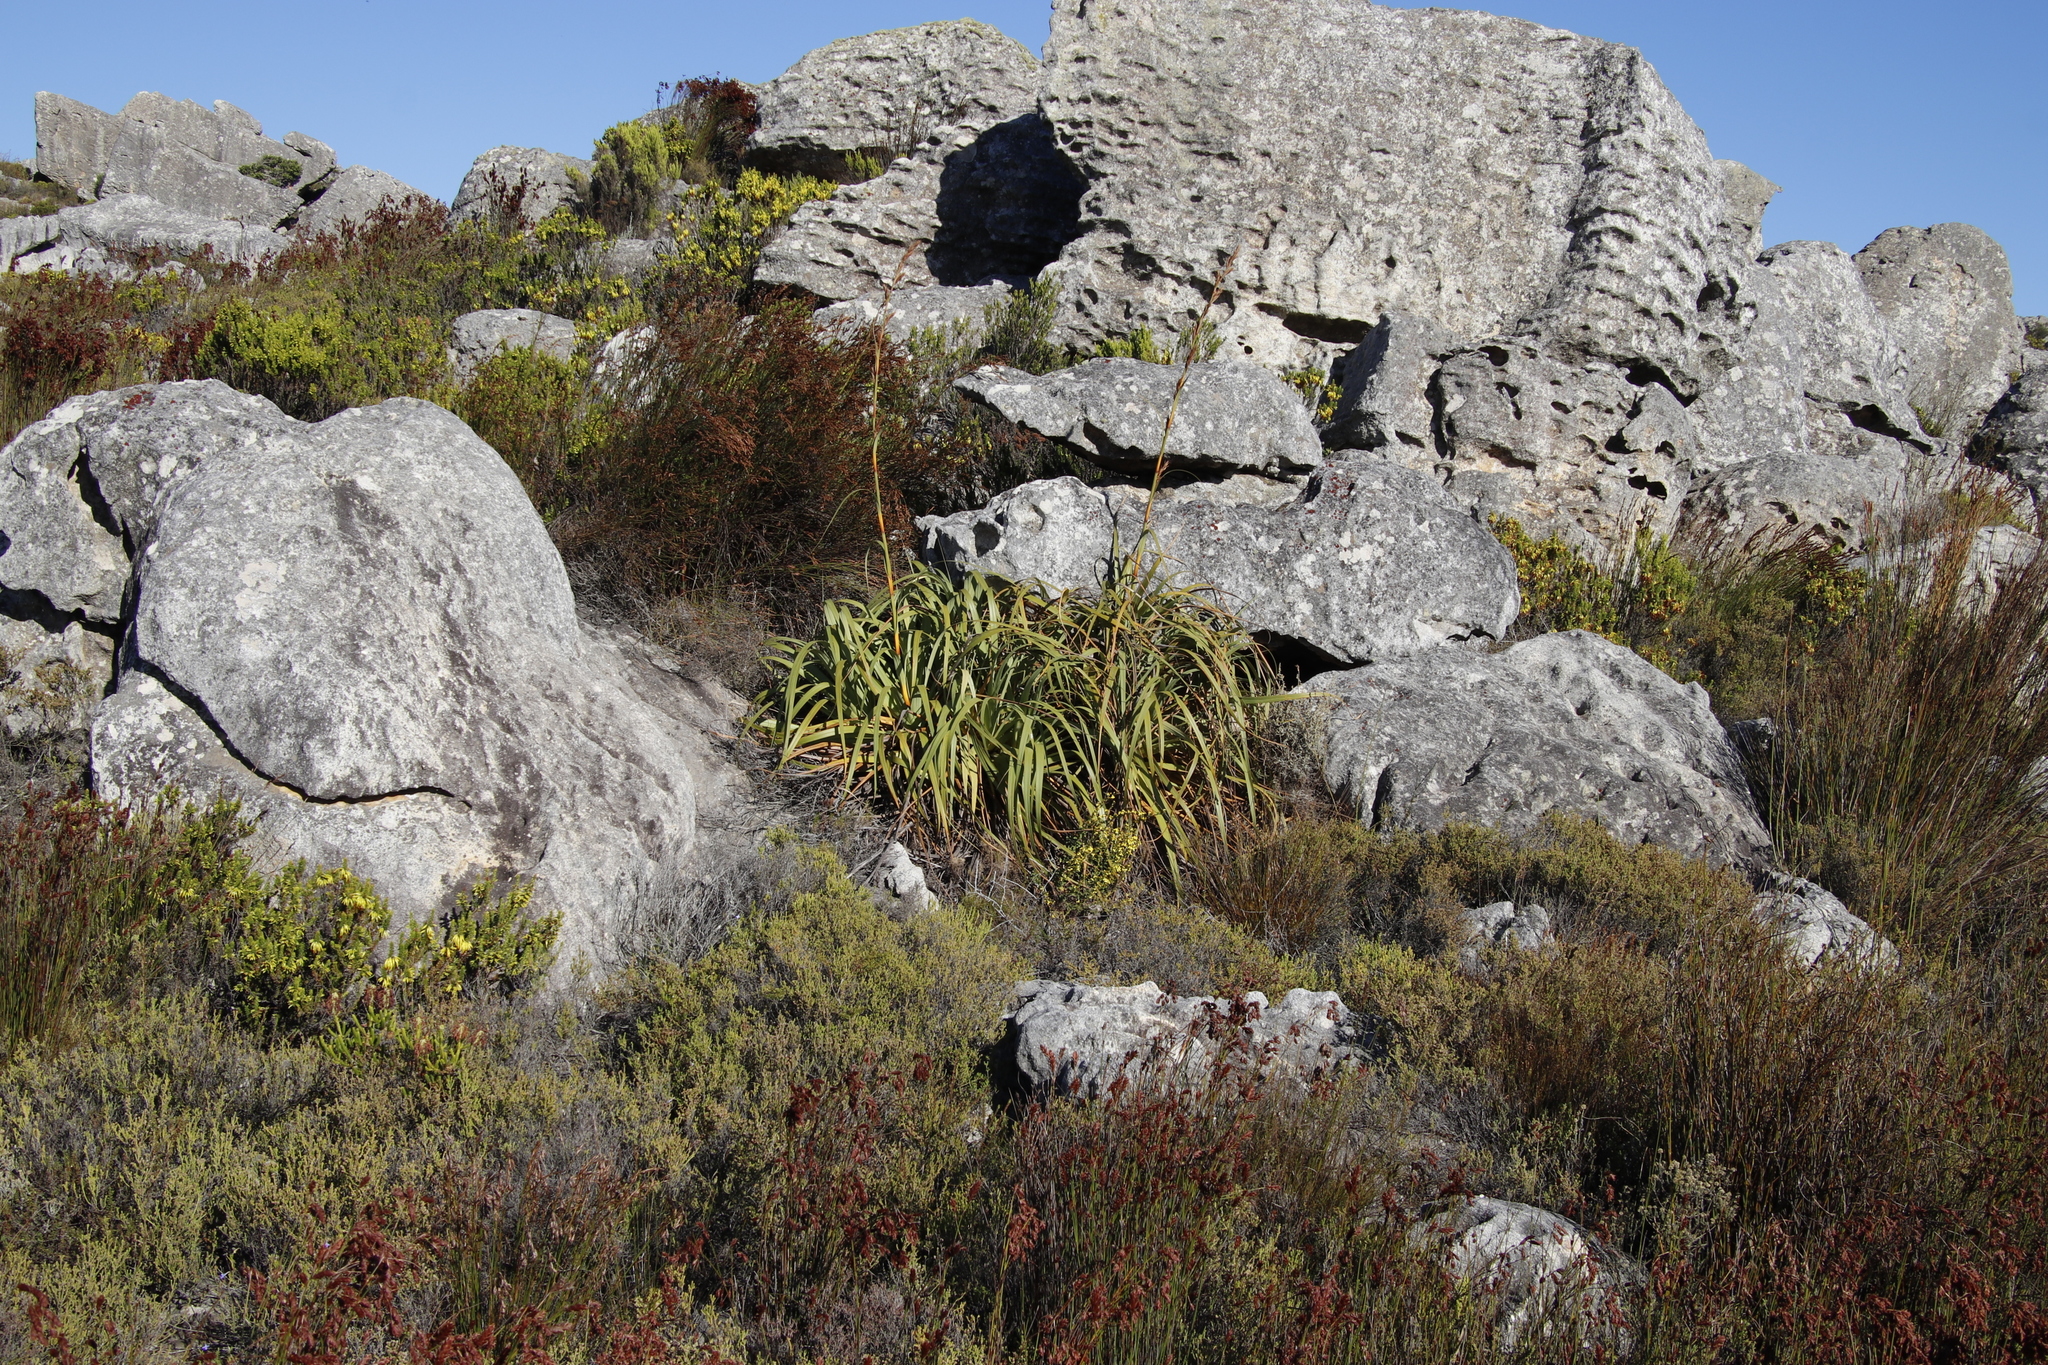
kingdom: Plantae
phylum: Tracheophyta
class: Liliopsida
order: Poales
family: Cyperaceae
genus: Tetraria
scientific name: Tetraria thermalis
